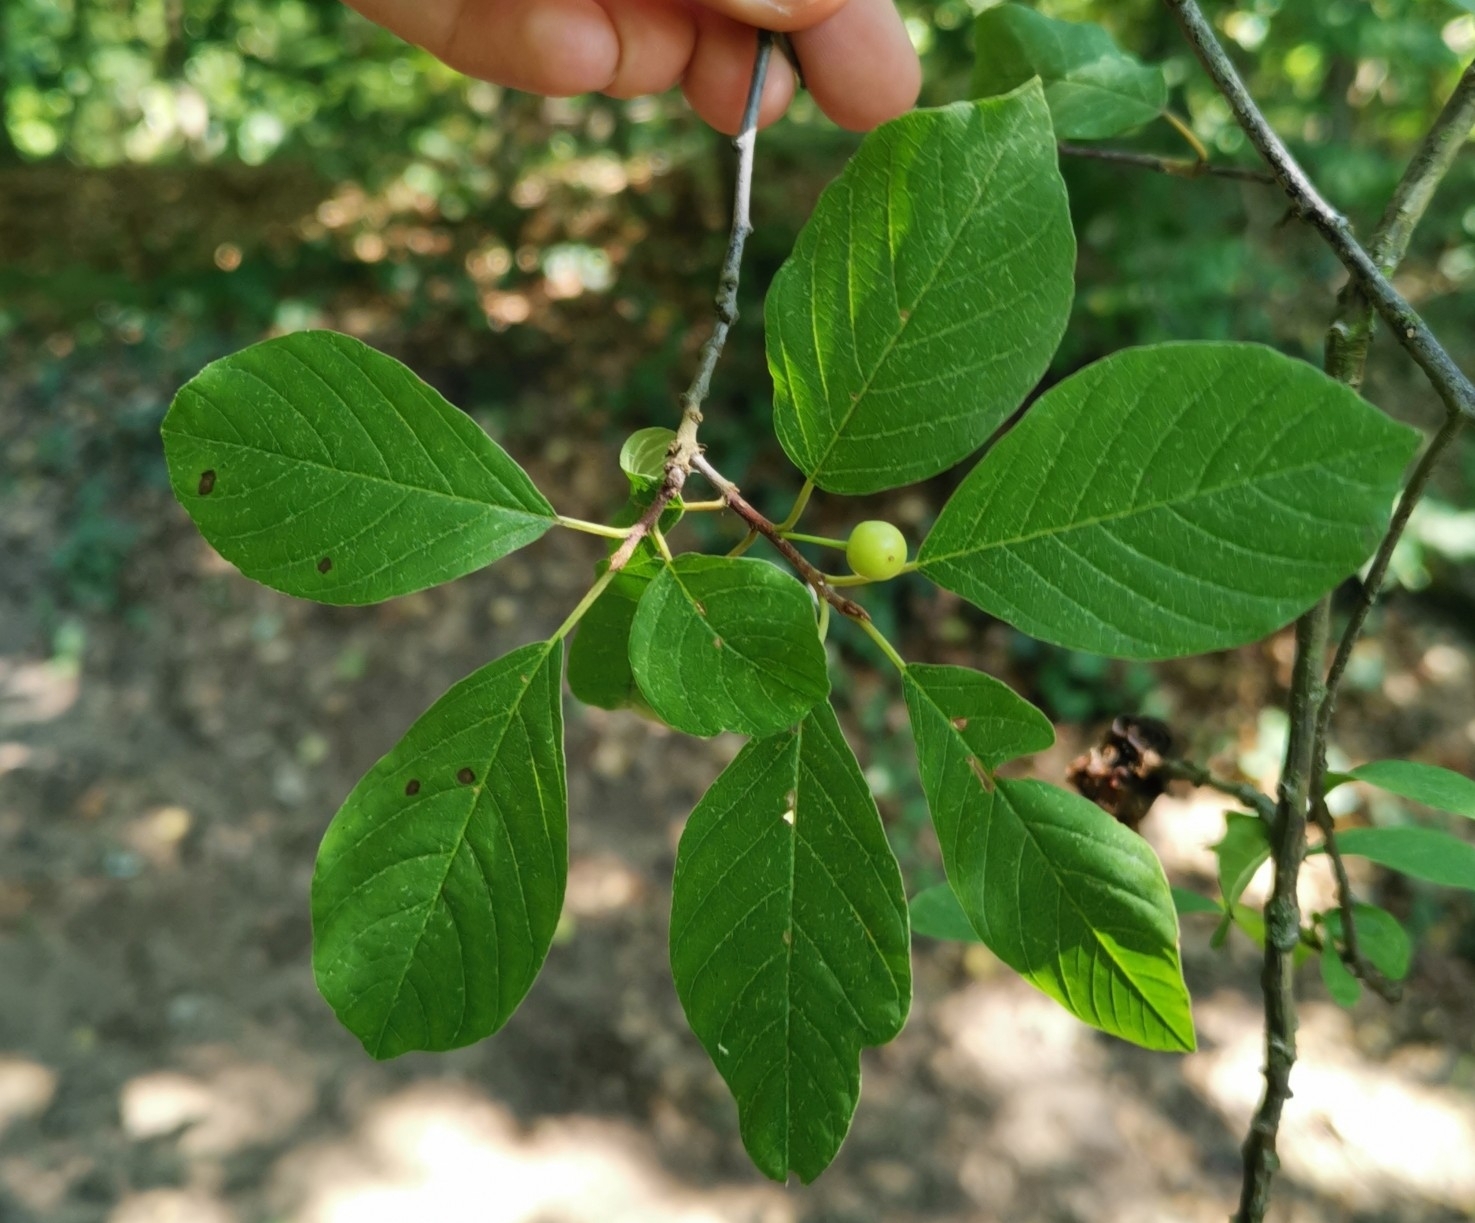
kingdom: Plantae
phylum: Tracheophyta
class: Magnoliopsida
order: Rosales
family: Rhamnaceae
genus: Frangula
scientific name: Frangula alnus
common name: Alder buckthorn
